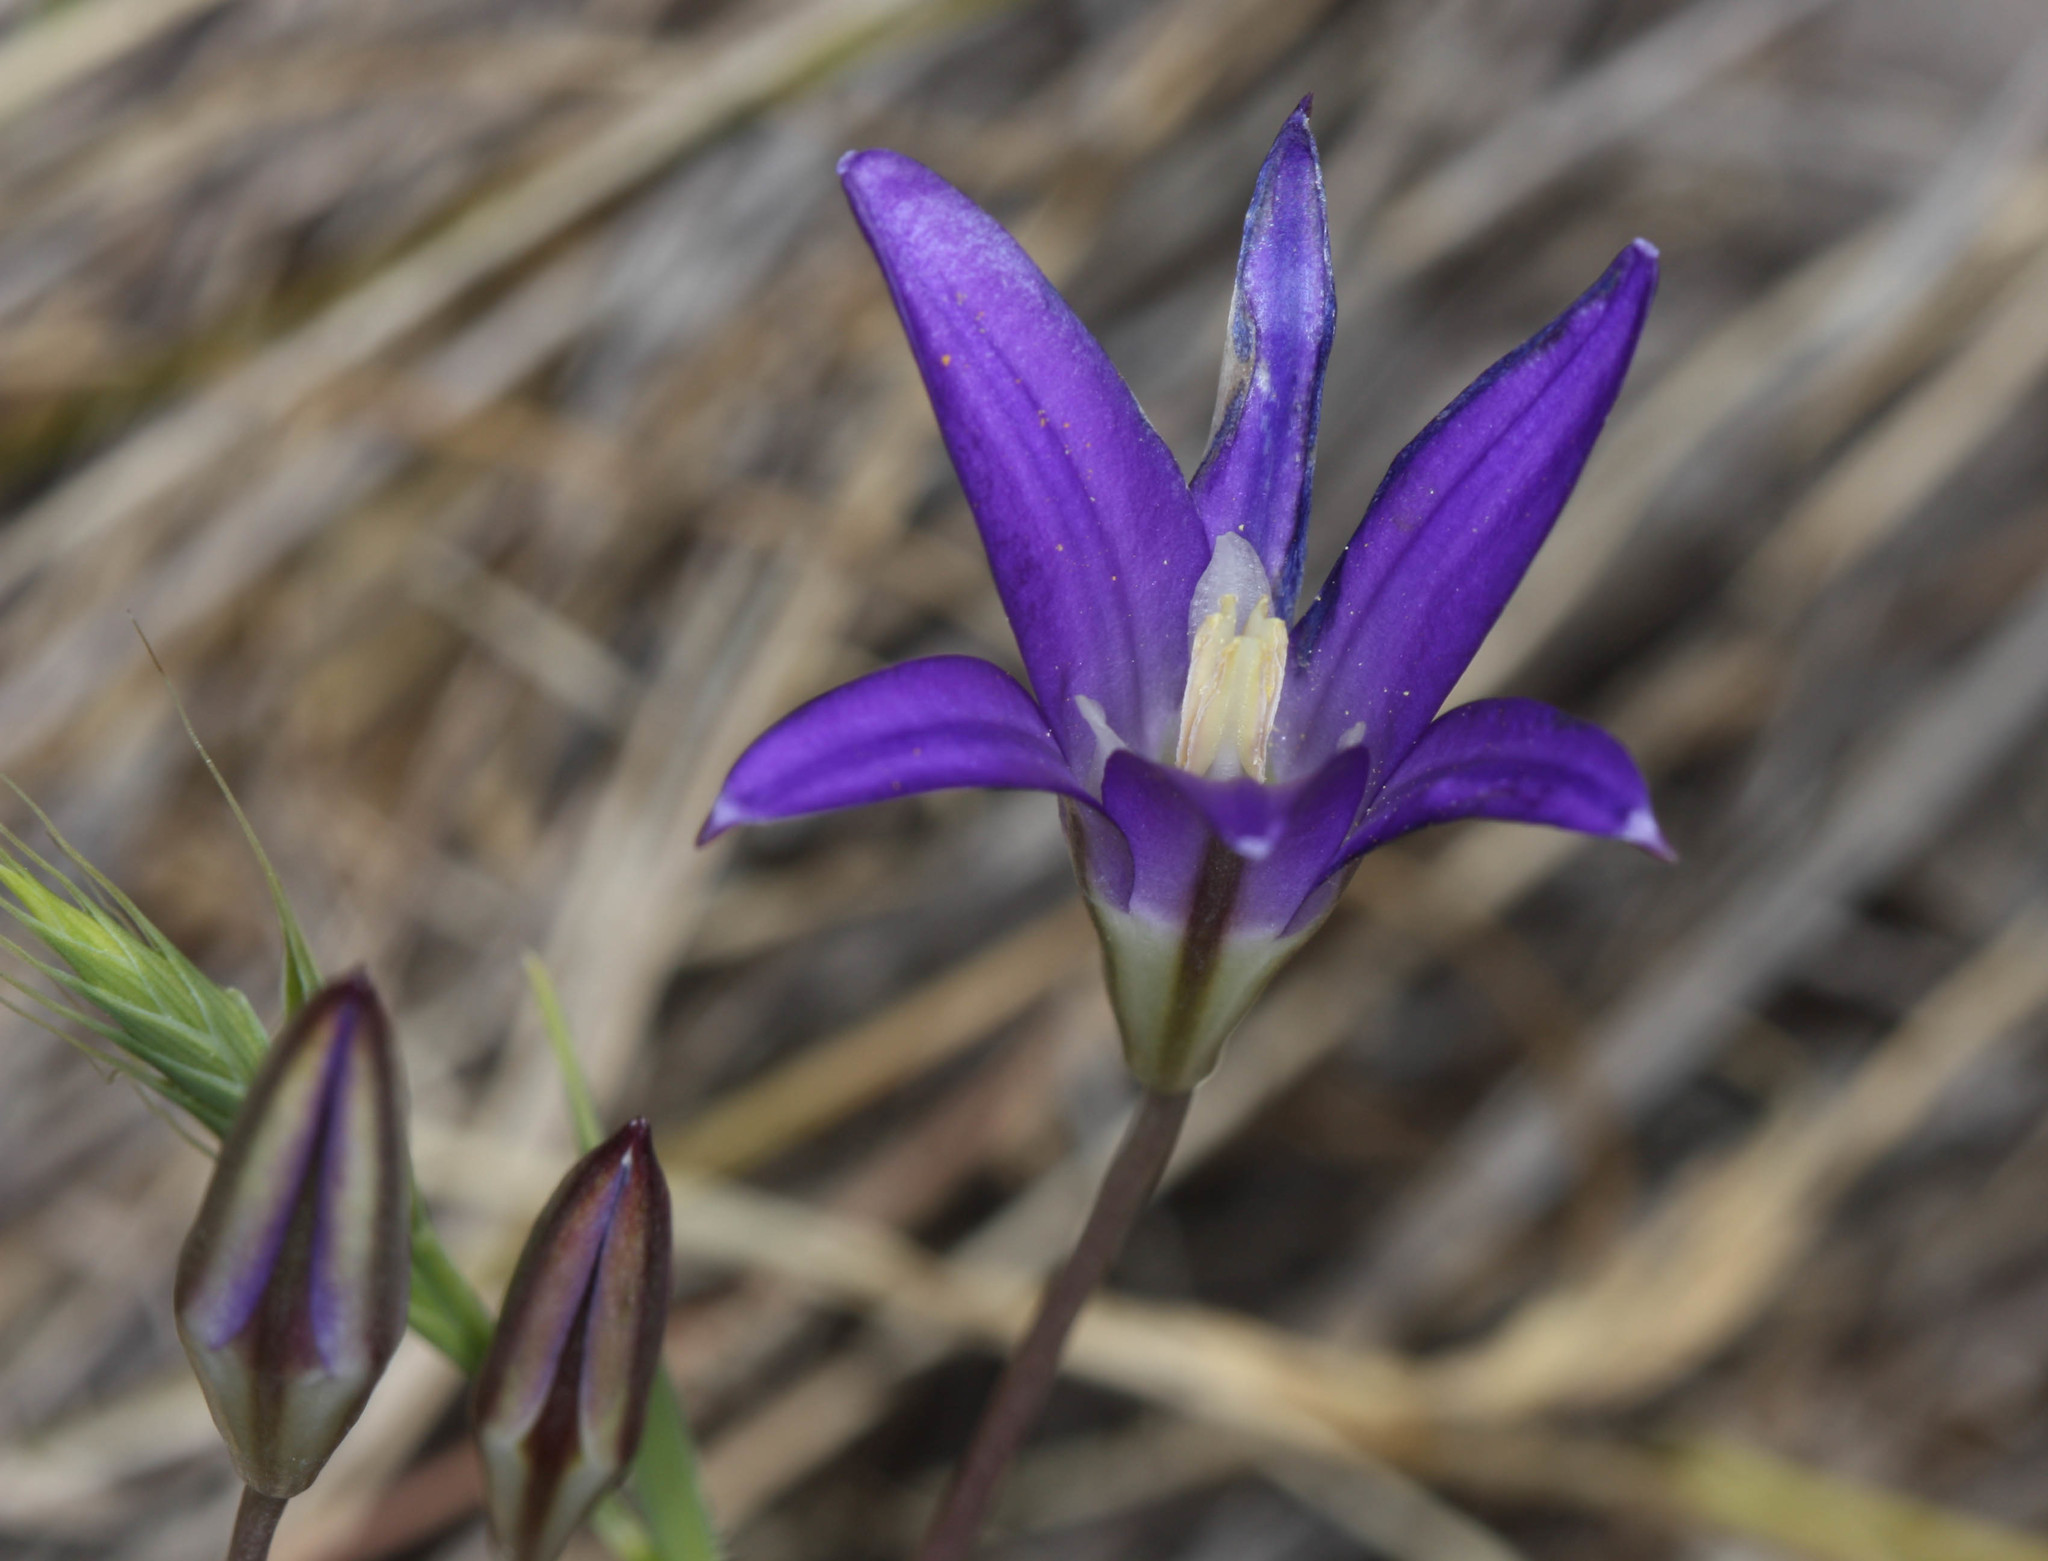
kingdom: Plantae
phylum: Tracheophyta
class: Liliopsida
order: Asparagales
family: Asparagaceae
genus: Brodiaea
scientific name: Brodiaea elegans
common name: Elegant cluster-lily
